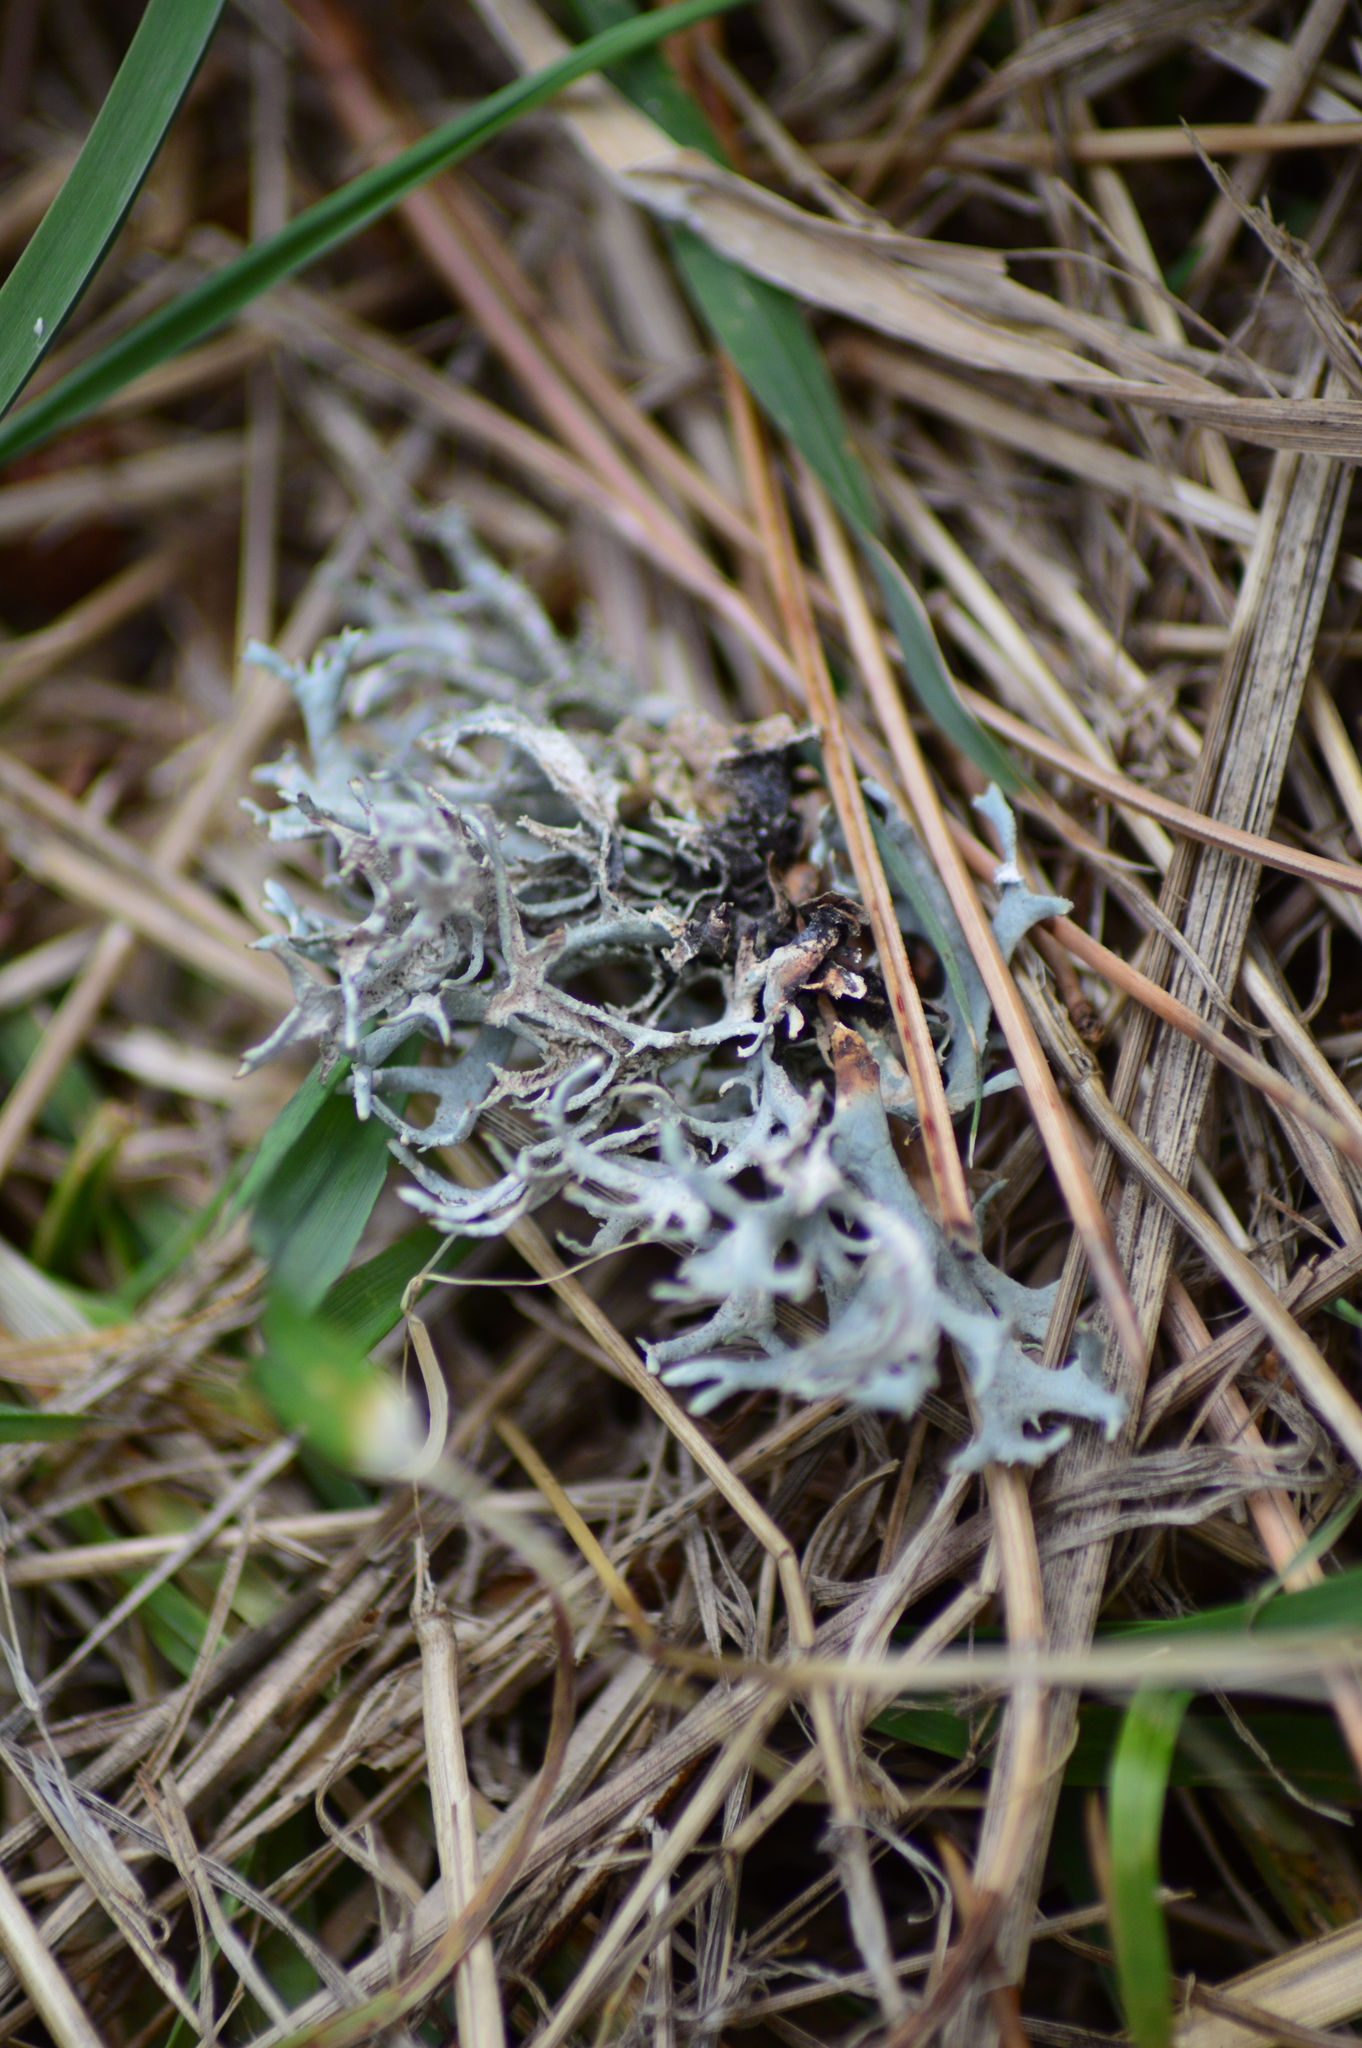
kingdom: Fungi
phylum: Ascomycota
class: Lecanoromycetes
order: Lecanorales
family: Parmeliaceae
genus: Pseudevernia
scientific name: Pseudevernia furfuracea
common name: Tree moss
